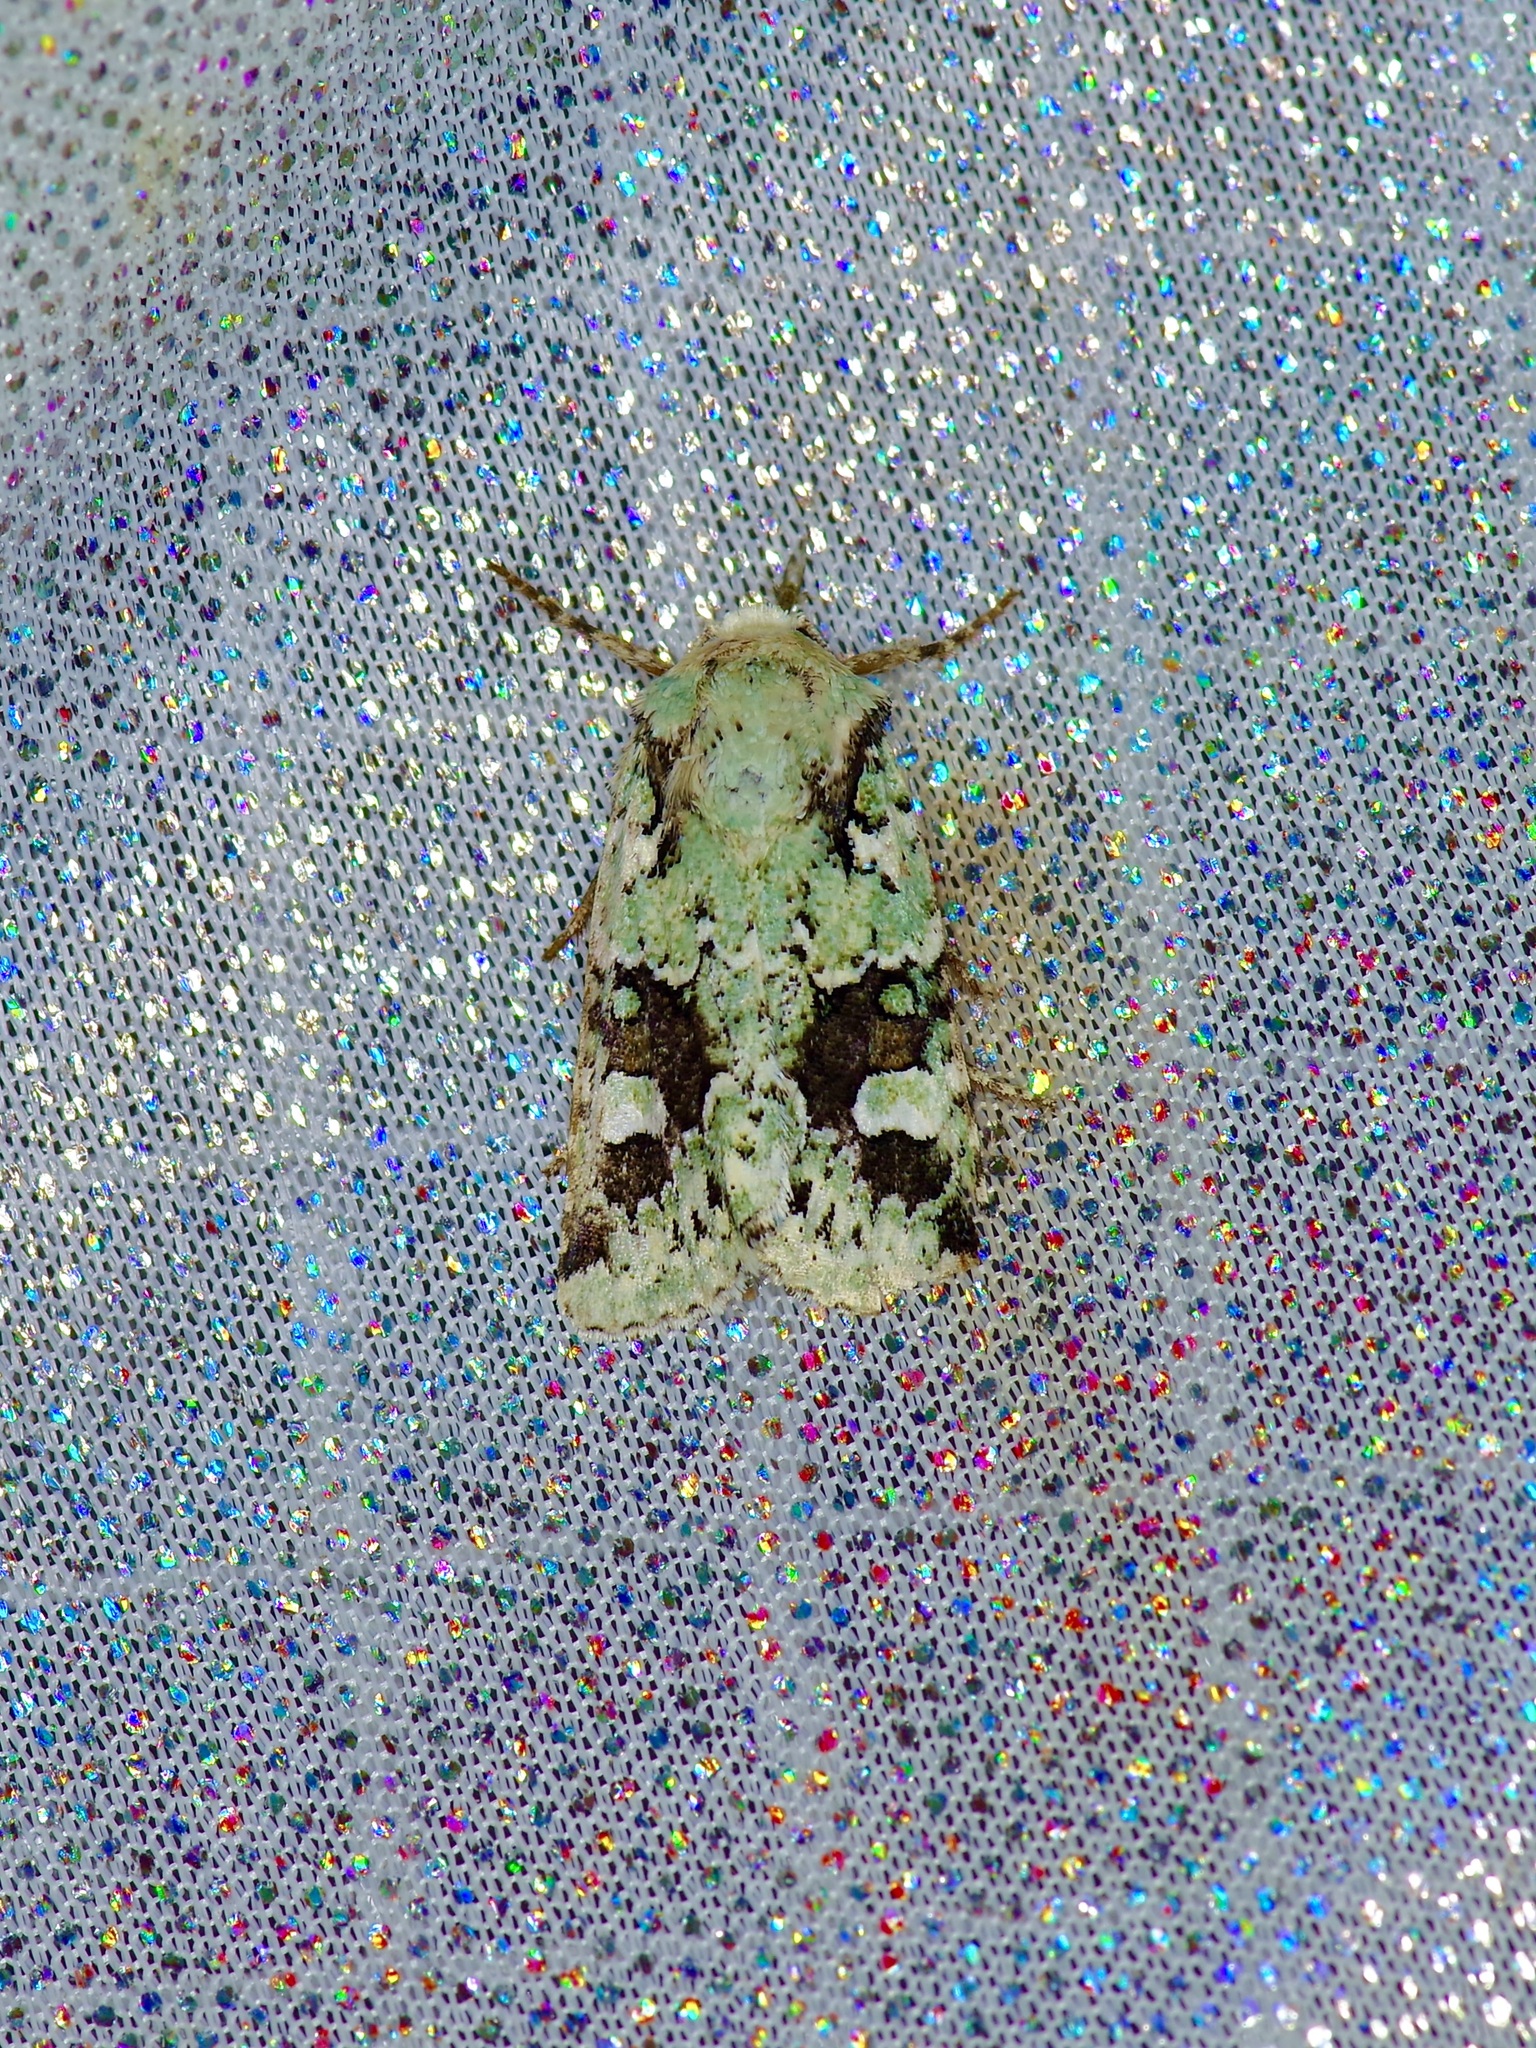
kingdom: Animalia
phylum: Arthropoda
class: Insecta
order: Lepidoptera
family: Noctuidae
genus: Lacinipolia
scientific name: Lacinipolia laudabilis
